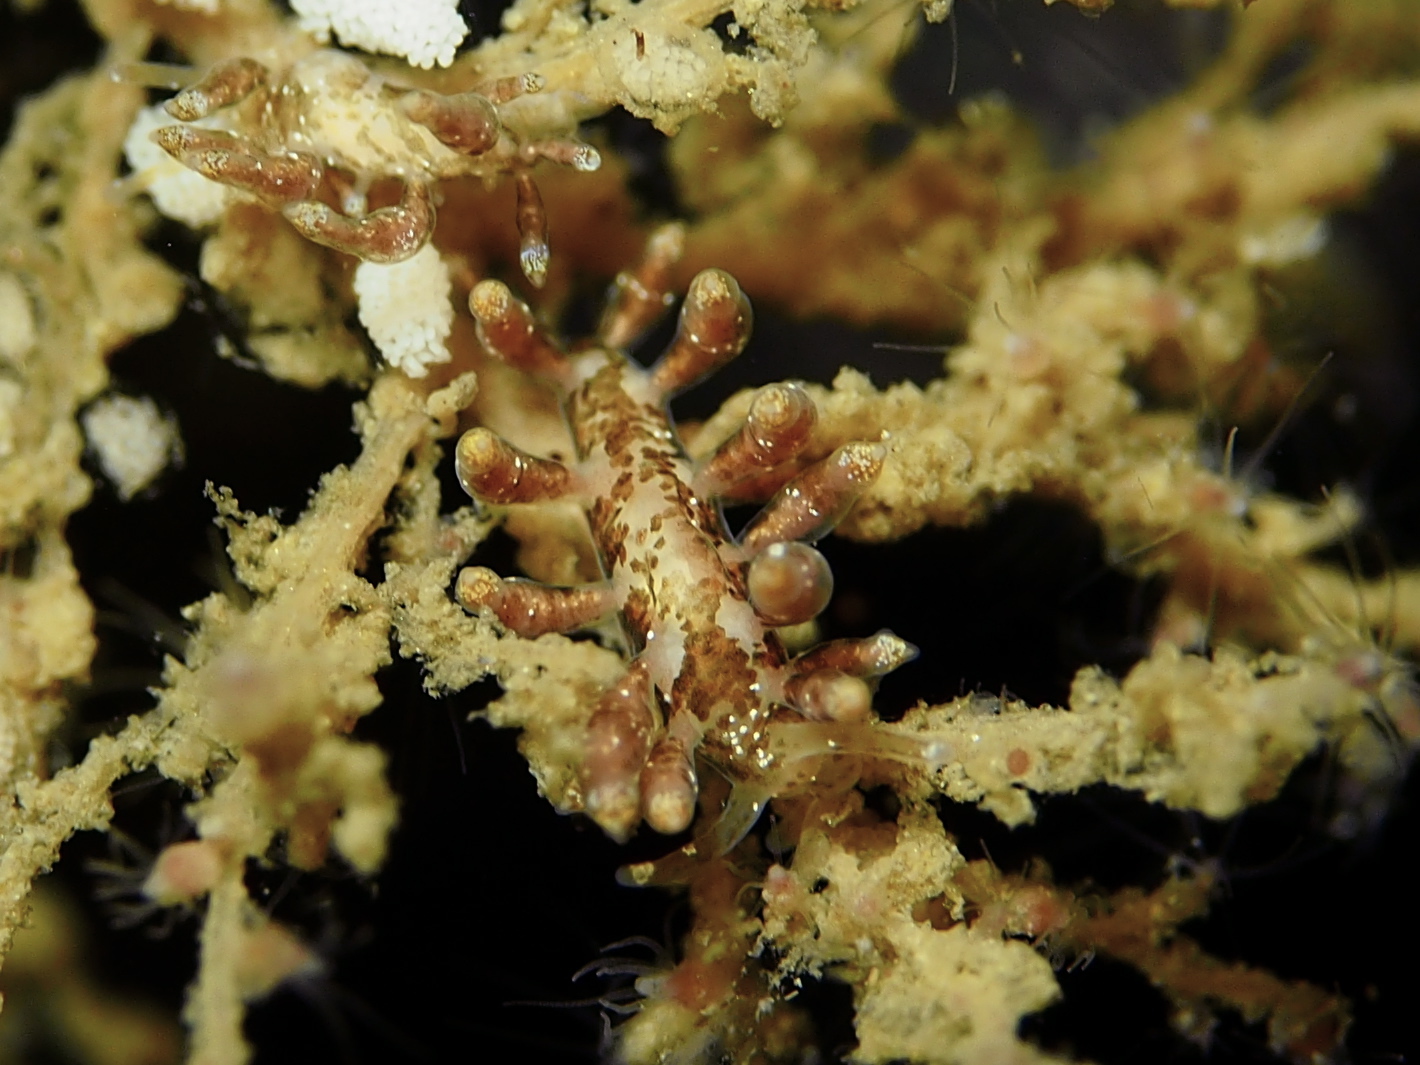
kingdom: Animalia
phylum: Mollusca
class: Gastropoda
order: Nudibranchia
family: Eubranchidae
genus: Eubranchus
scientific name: Eubranchus exiguus
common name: Balloon aeolis
